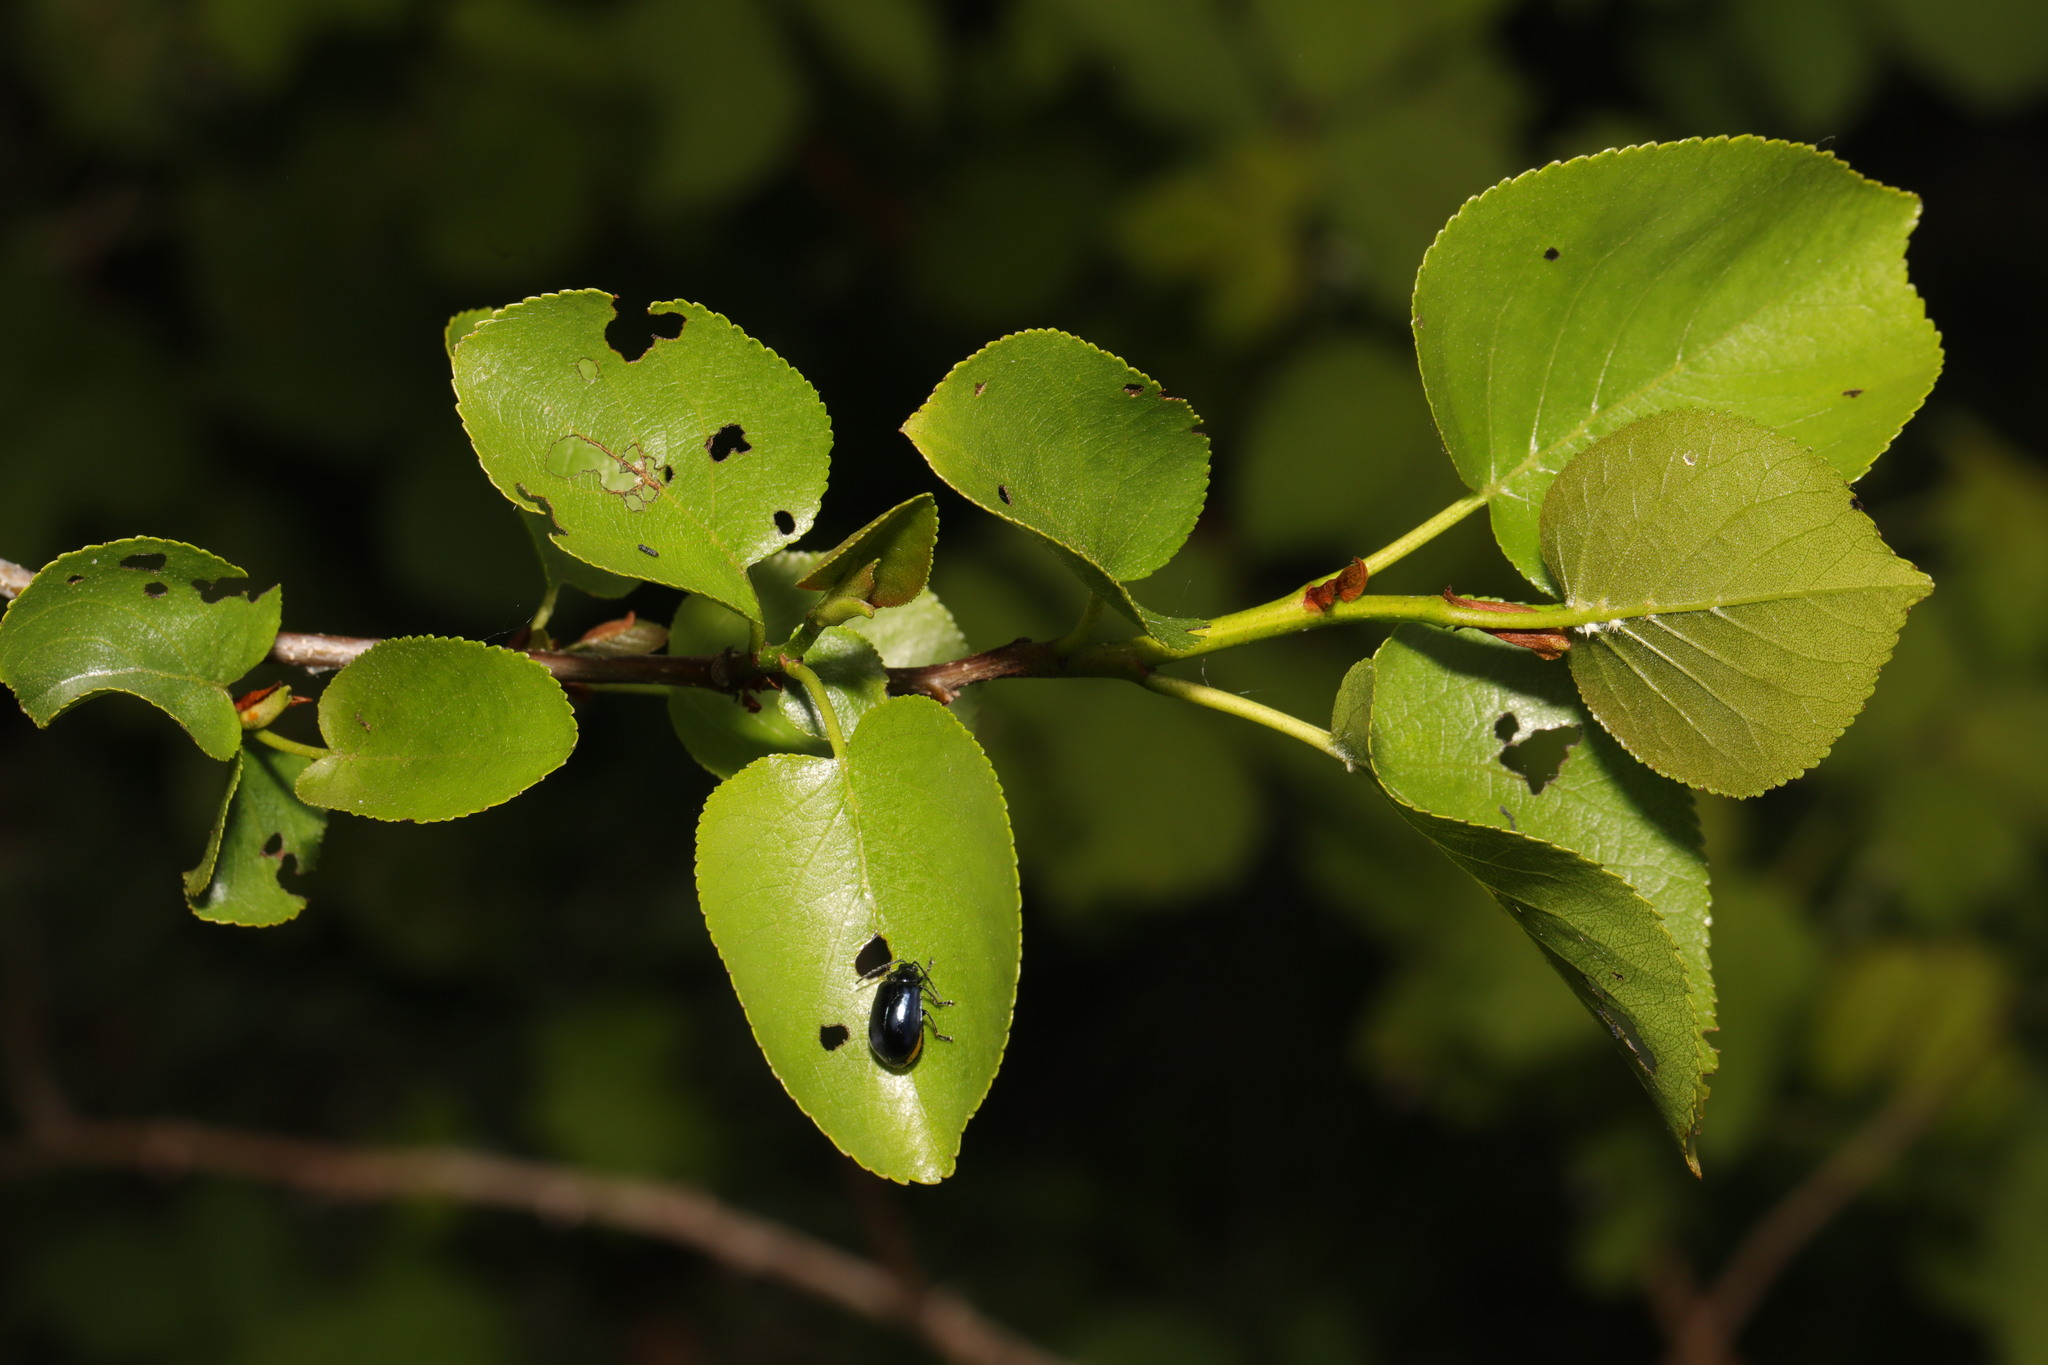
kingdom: Plantae
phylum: Tracheophyta
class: Magnoliopsida
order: Fagales
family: Betulaceae
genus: Alnus
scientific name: Alnus cordata
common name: Italian alder
